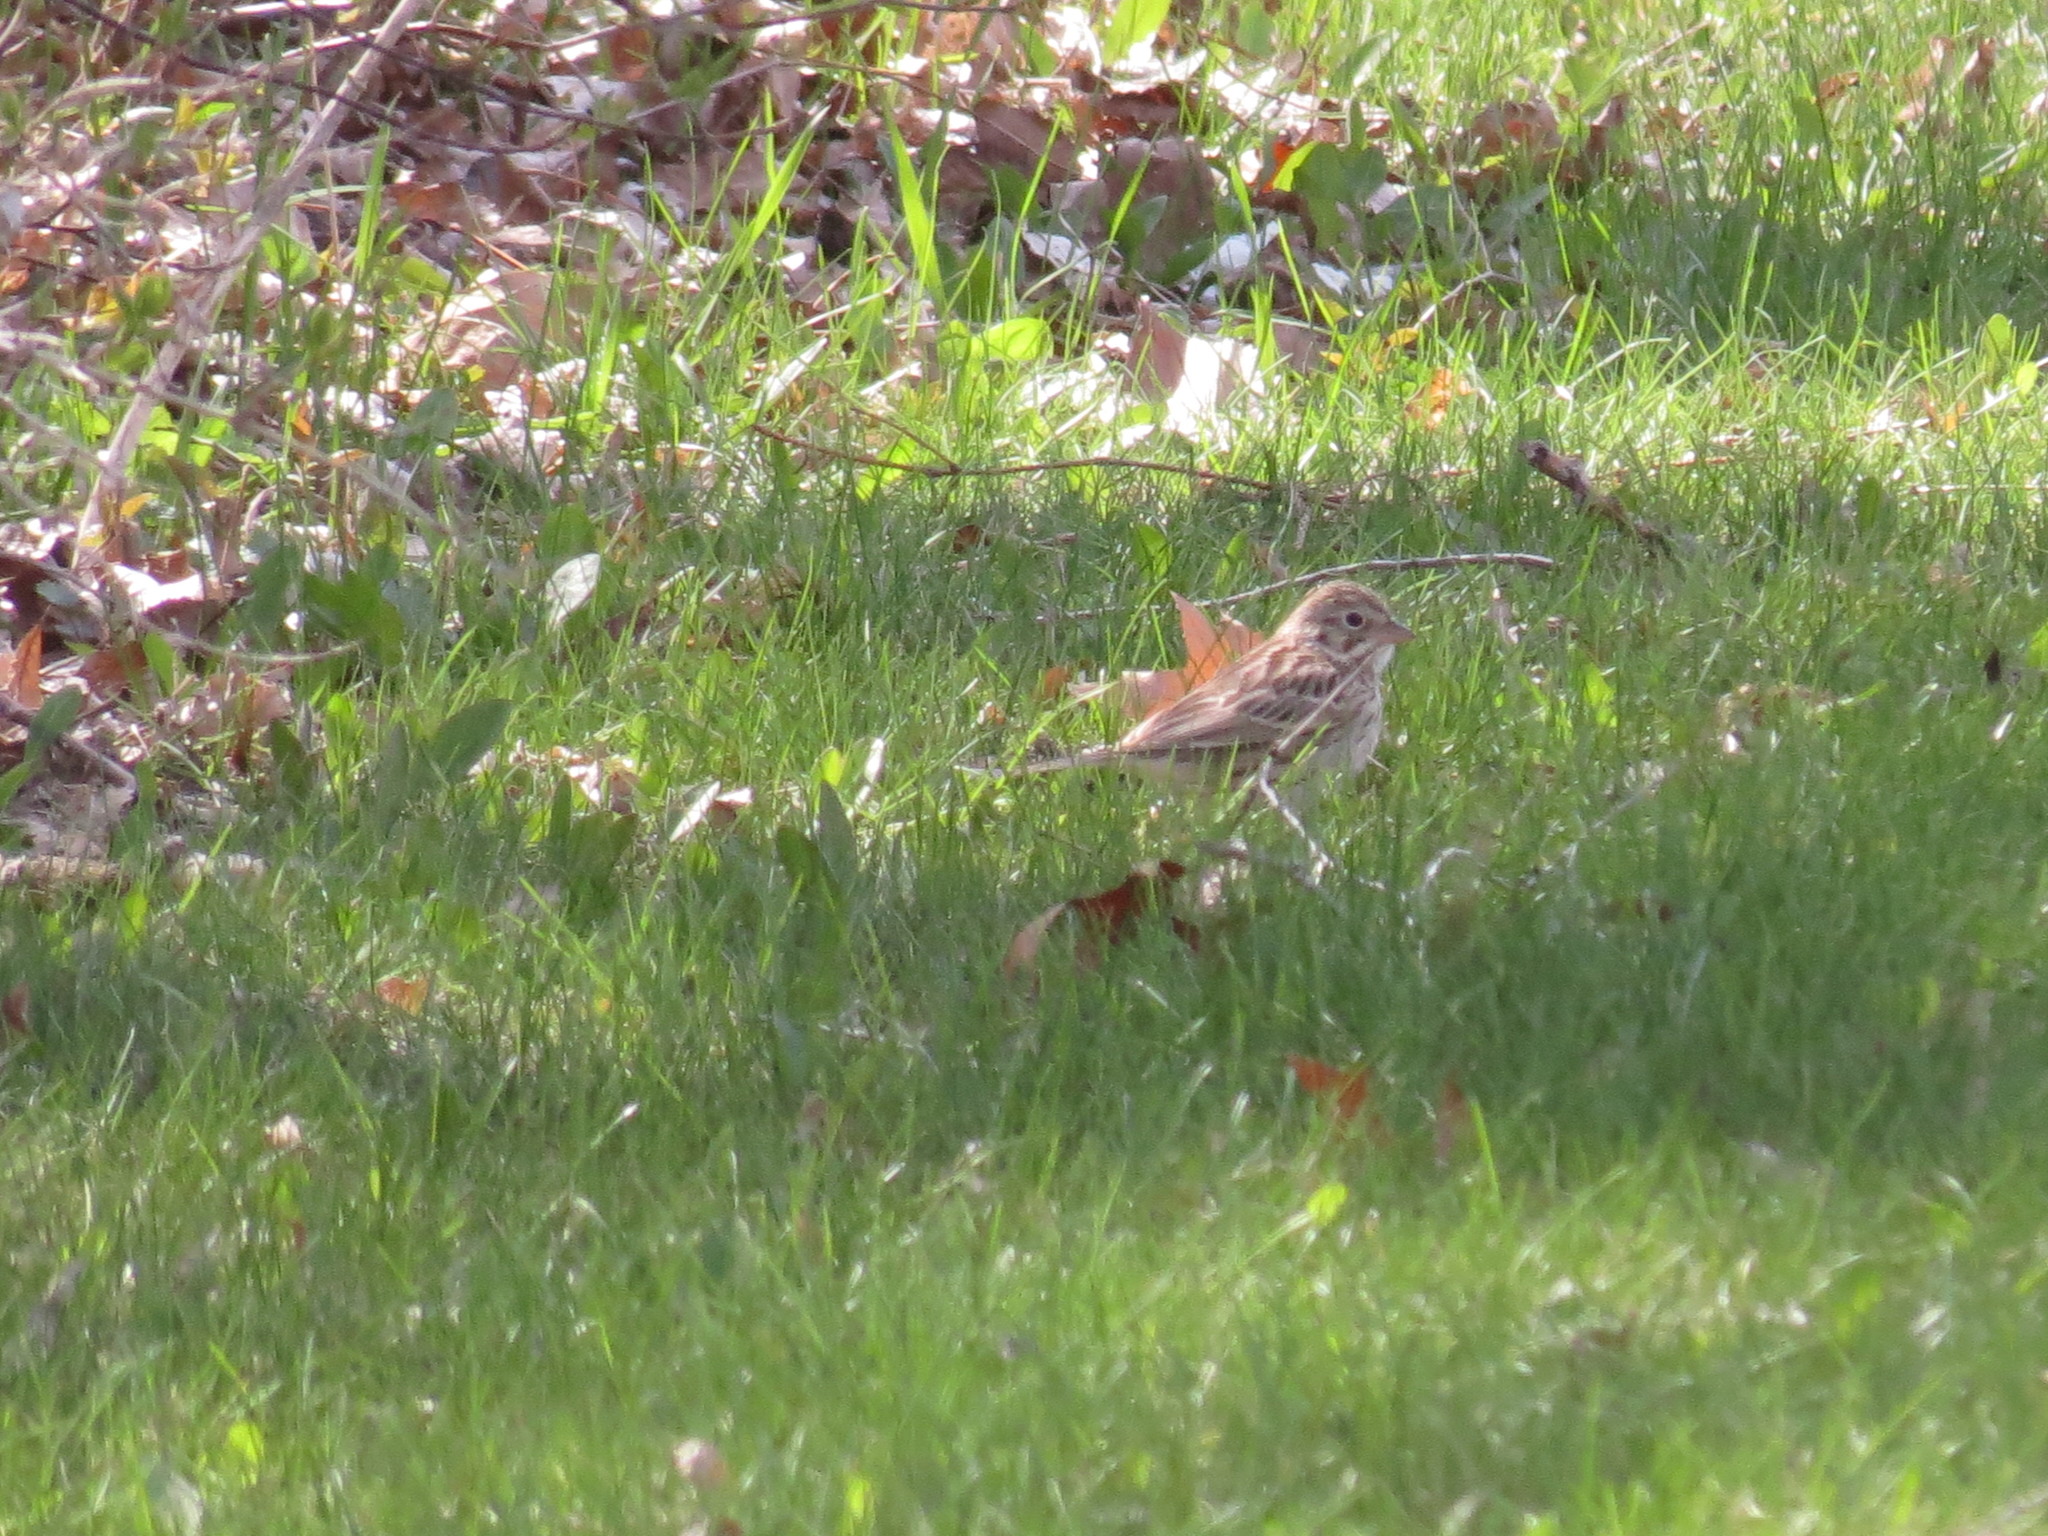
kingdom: Animalia
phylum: Chordata
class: Aves
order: Passeriformes
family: Passerellidae
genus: Pooecetes
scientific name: Pooecetes gramineus
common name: Vesper sparrow
